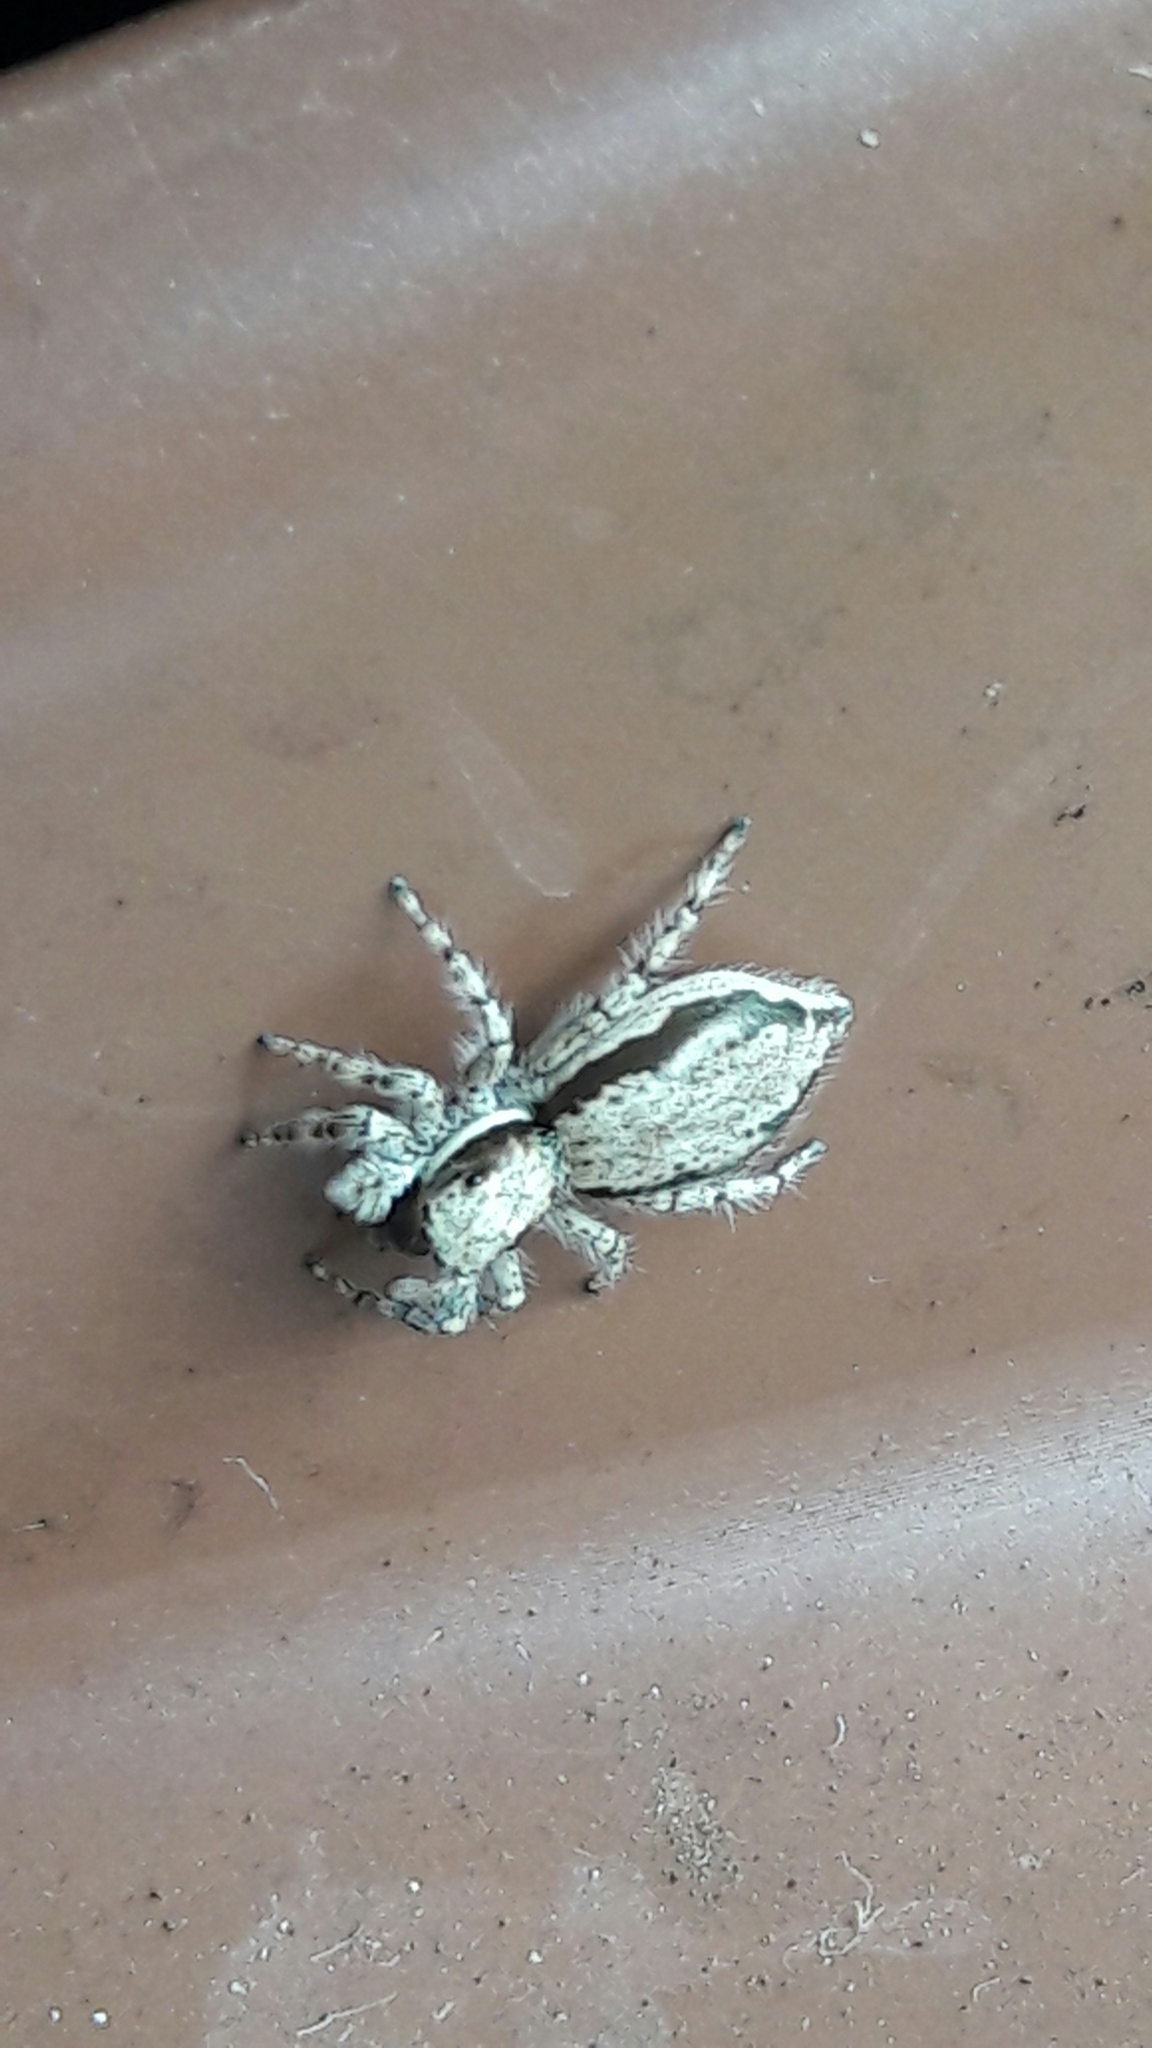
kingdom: Animalia
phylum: Arthropoda
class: Arachnida
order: Araneae
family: Salticidae
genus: Menemerus
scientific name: Menemerus bivittatus
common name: Gray wall jumper
